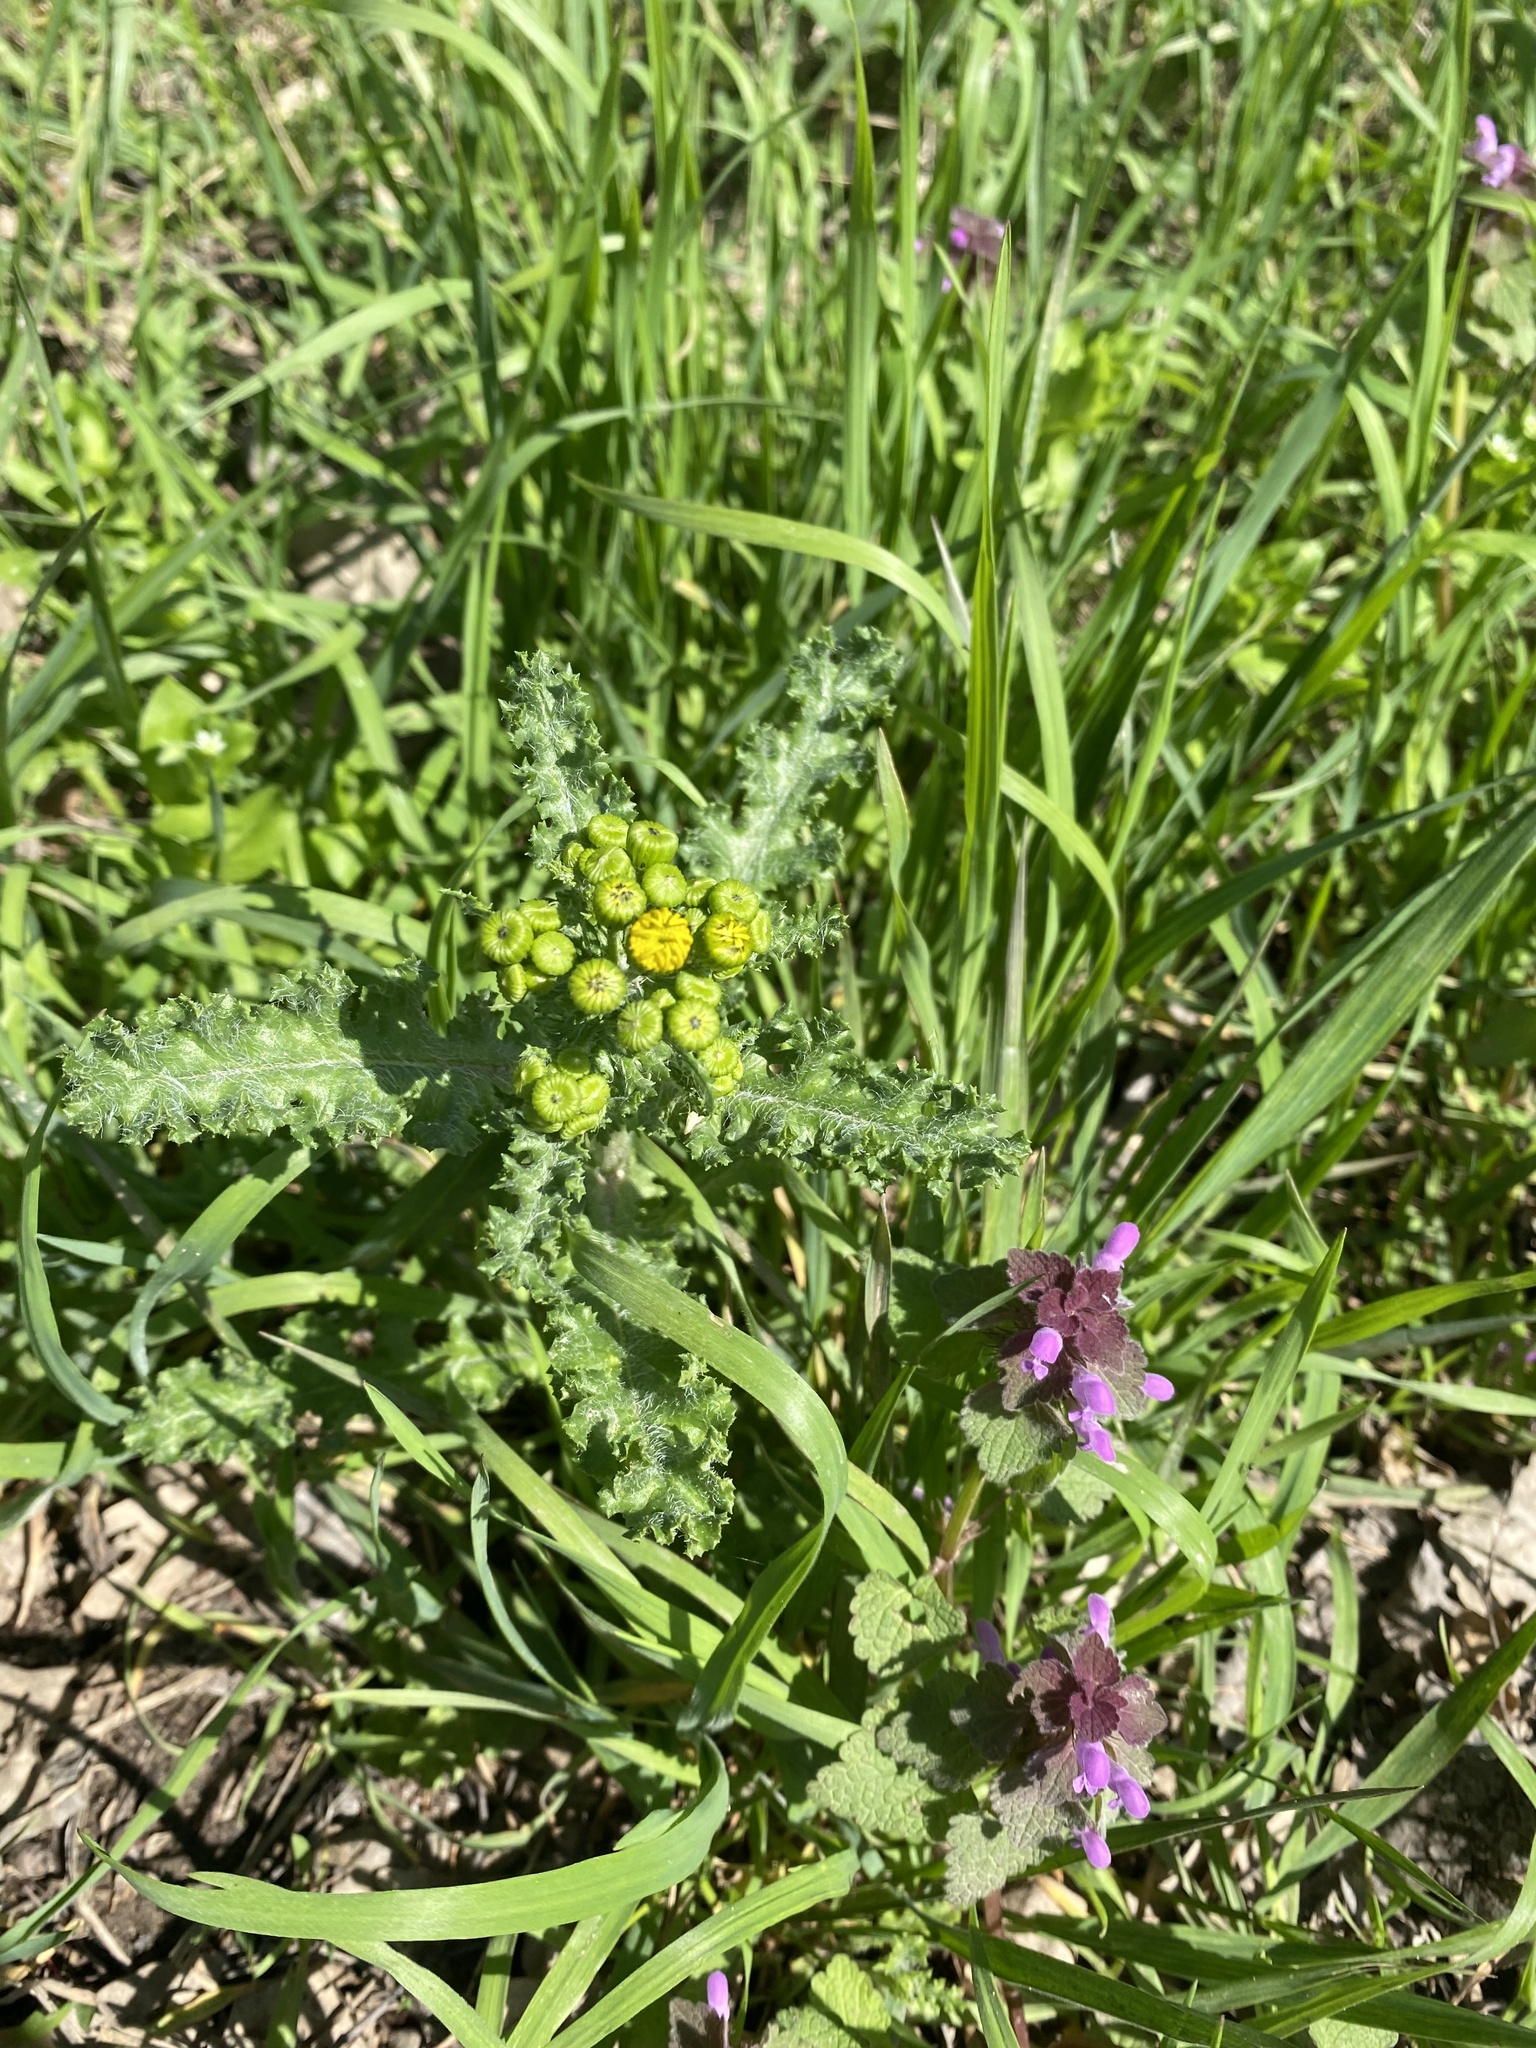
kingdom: Plantae
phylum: Tracheophyta
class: Magnoliopsida
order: Asterales
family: Asteraceae
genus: Senecio
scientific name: Senecio vernalis
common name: Eastern groundsel
